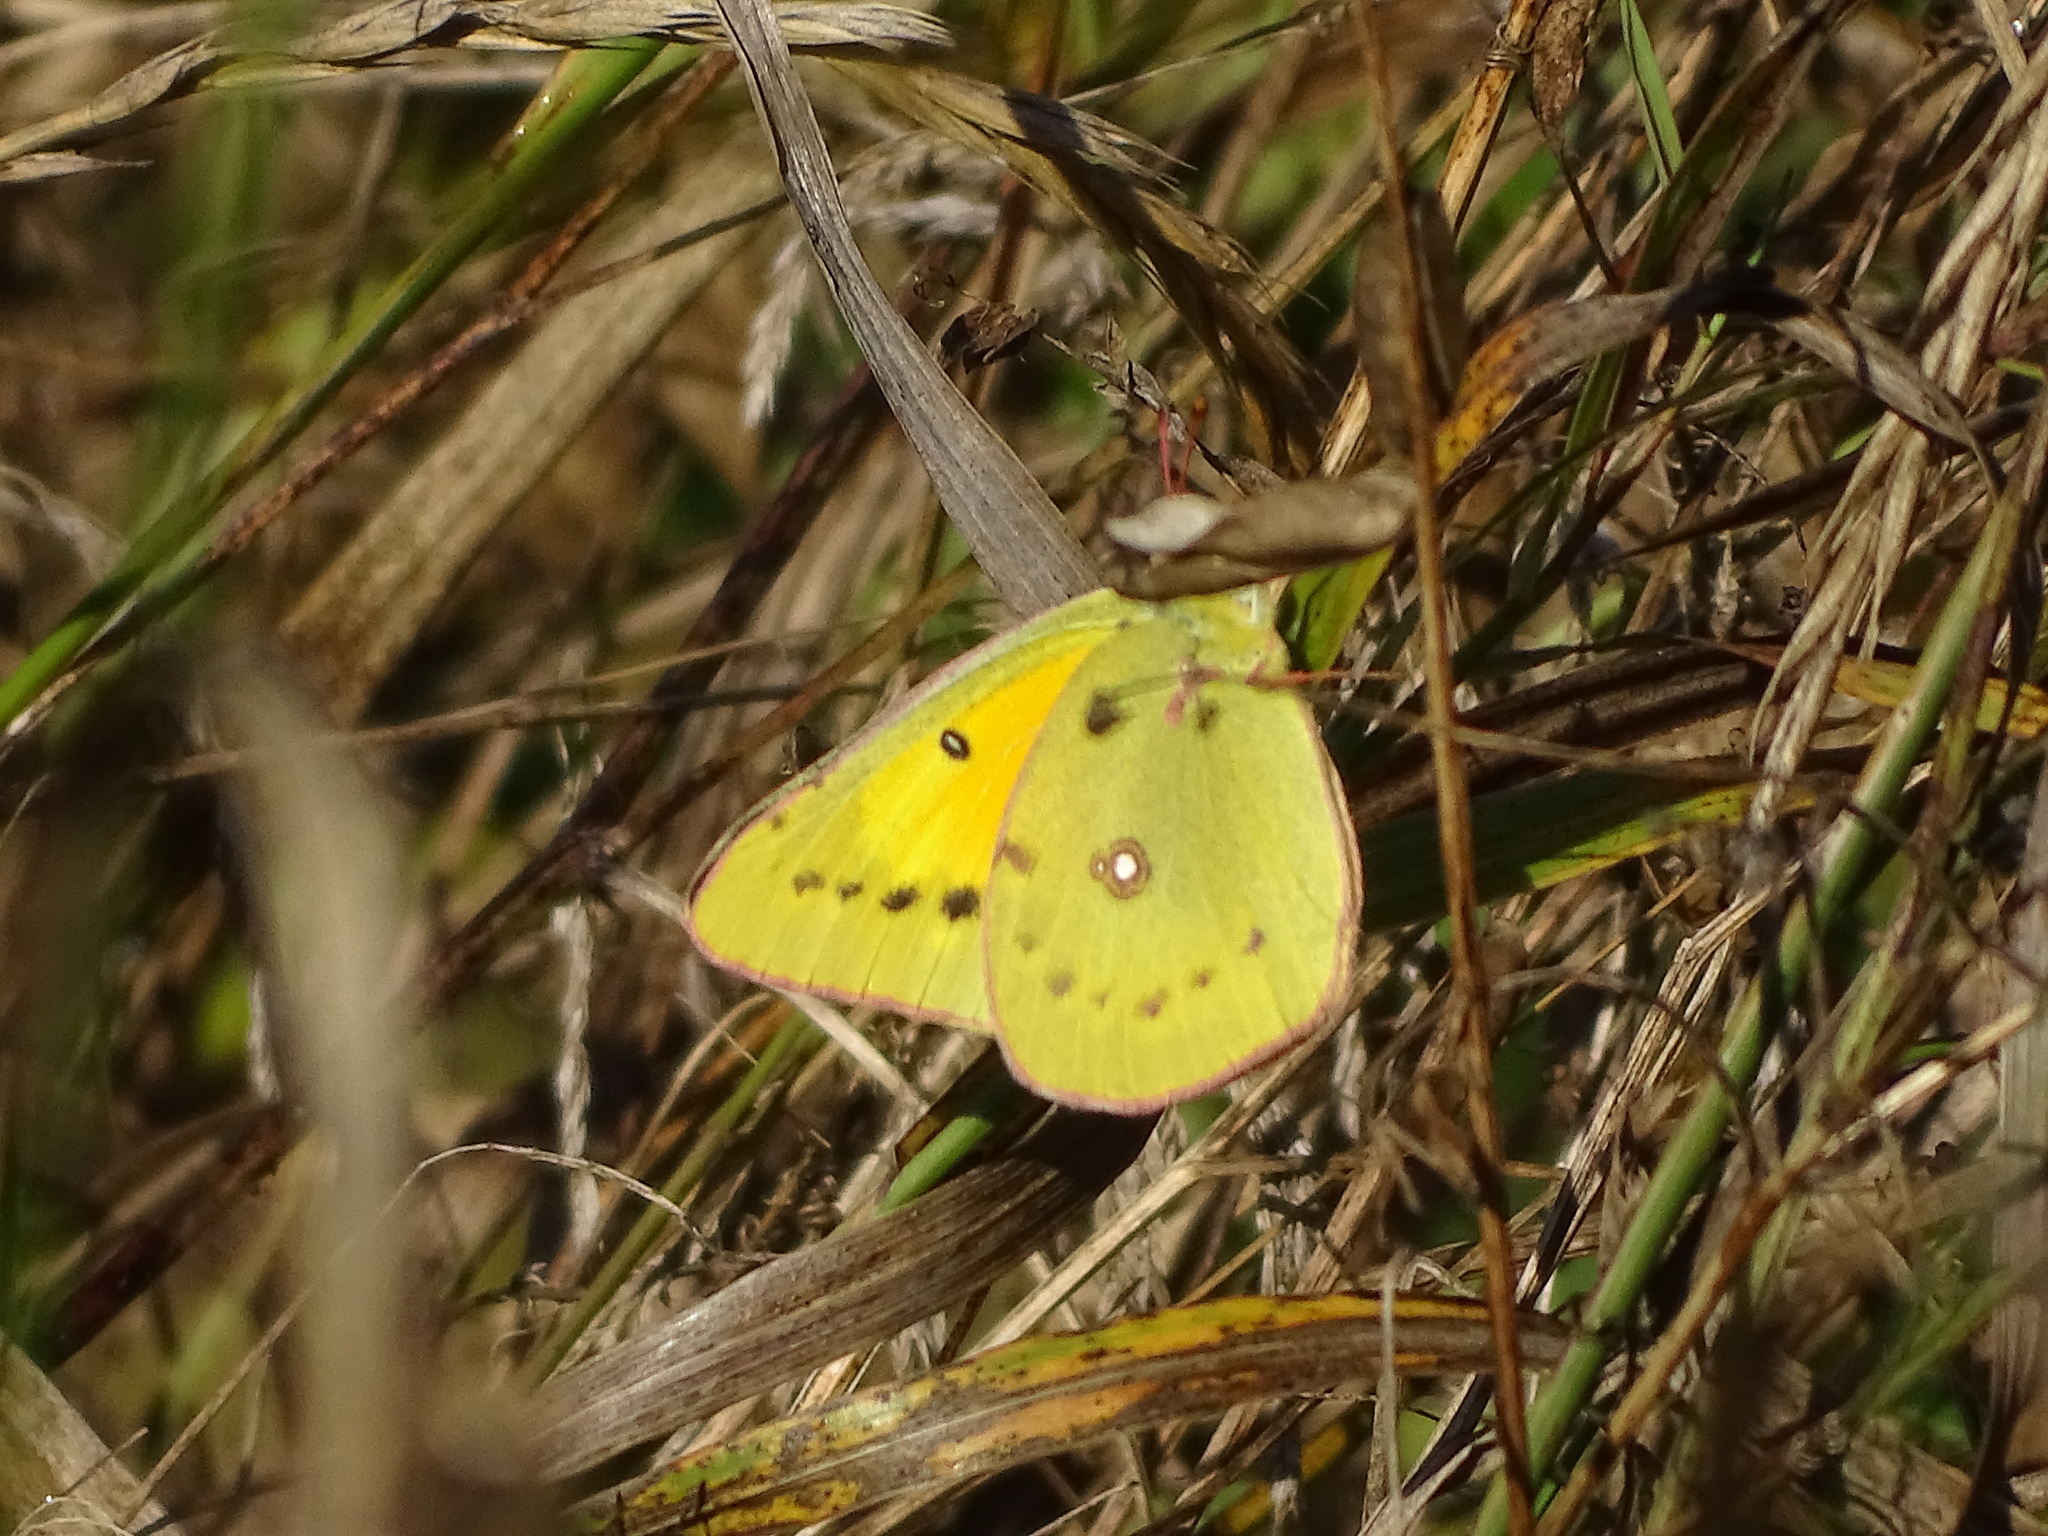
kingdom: Animalia
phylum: Arthropoda
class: Insecta
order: Lepidoptera
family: Pieridae
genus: Colias
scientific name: Colias eurytheme
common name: Alfalfa butterfly
